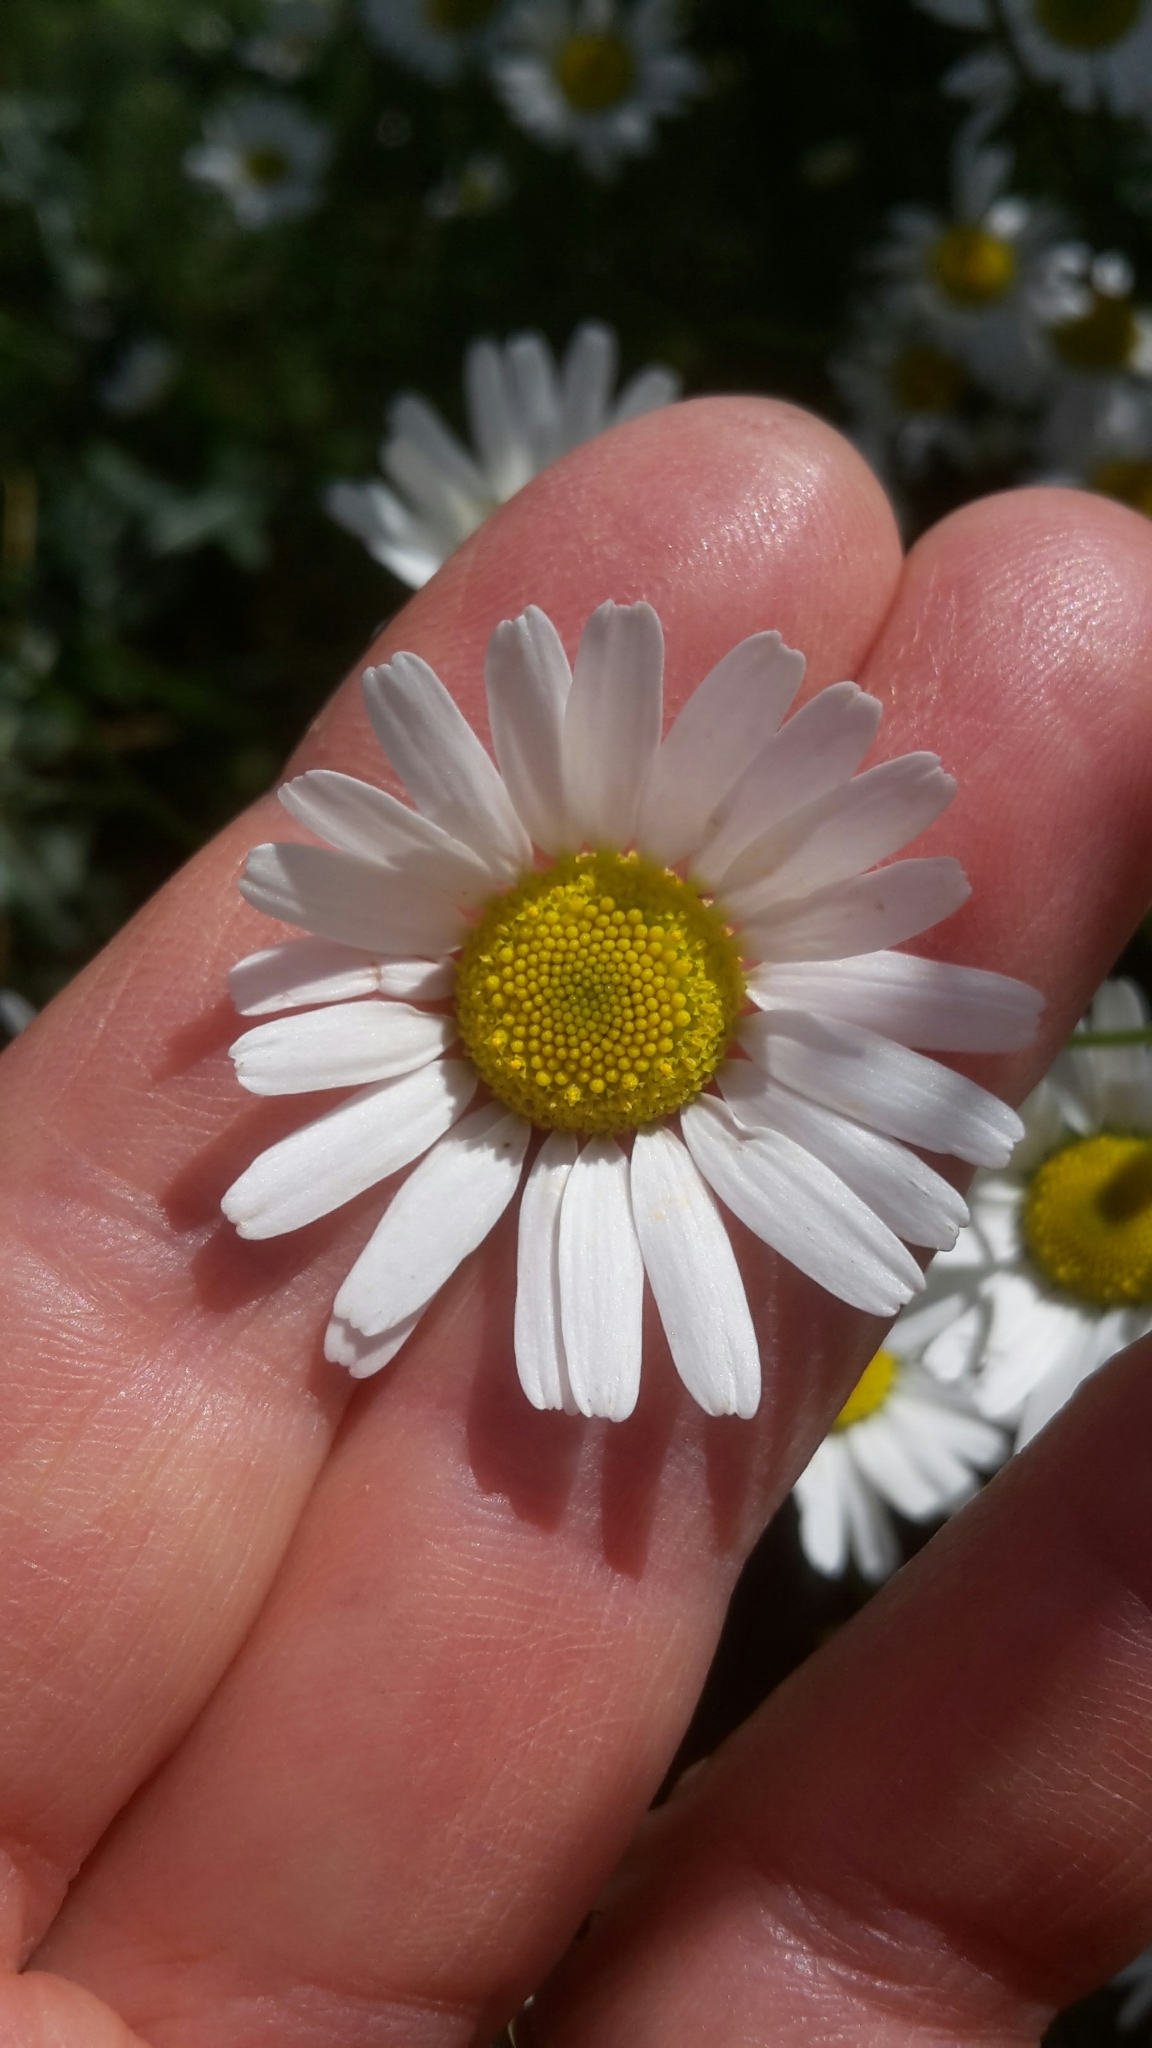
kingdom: Plantae
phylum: Tracheophyta
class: Magnoliopsida
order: Asterales
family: Asteraceae
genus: Tripleurospermum
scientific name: Tripleurospermum inodorum
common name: Scentless mayweed
